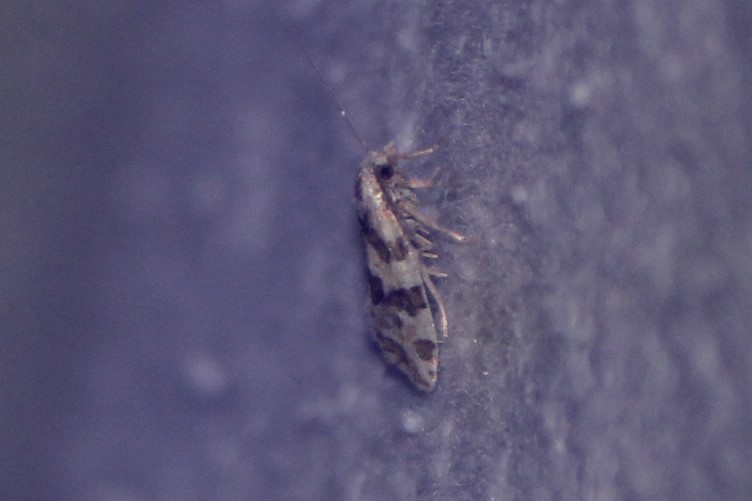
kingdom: Animalia
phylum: Arthropoda
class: Insecta
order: Lepidoptera
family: Tortricidae
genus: Aethes
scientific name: Aethes argentilimitana
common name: Silver-bordered aethes
